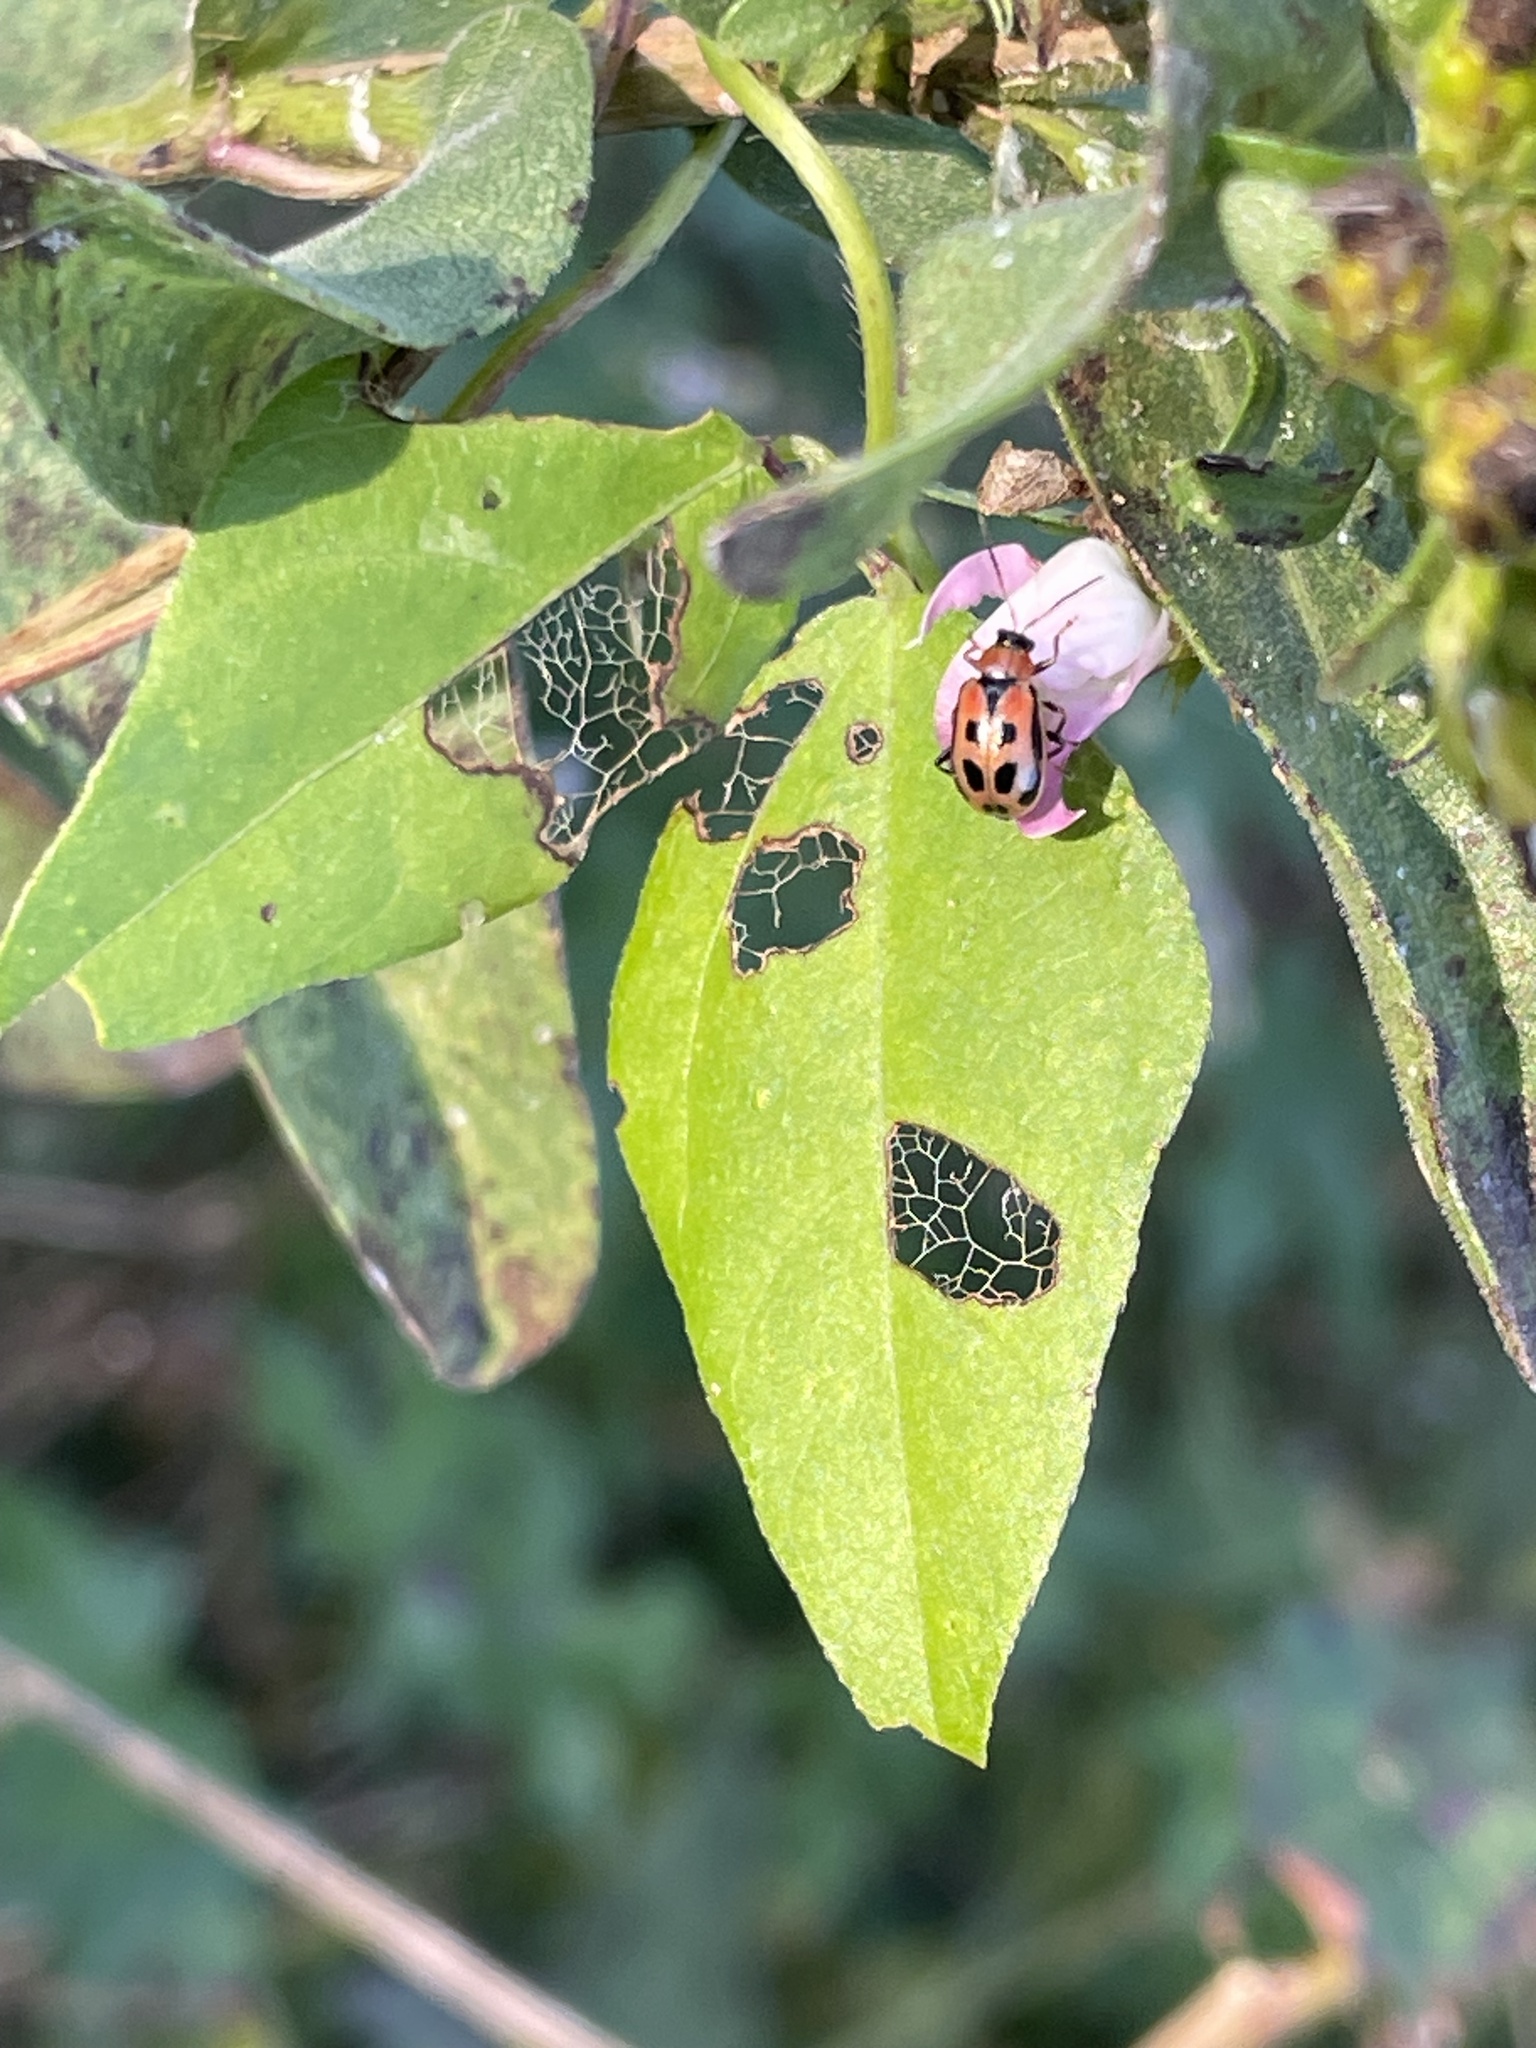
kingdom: Animalia
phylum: Arthropoda
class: Insecta
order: Coleoptera
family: Chrysomelidae
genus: Cerotoma
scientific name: Cerotoma trifurcata
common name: Bean leaf beetle
